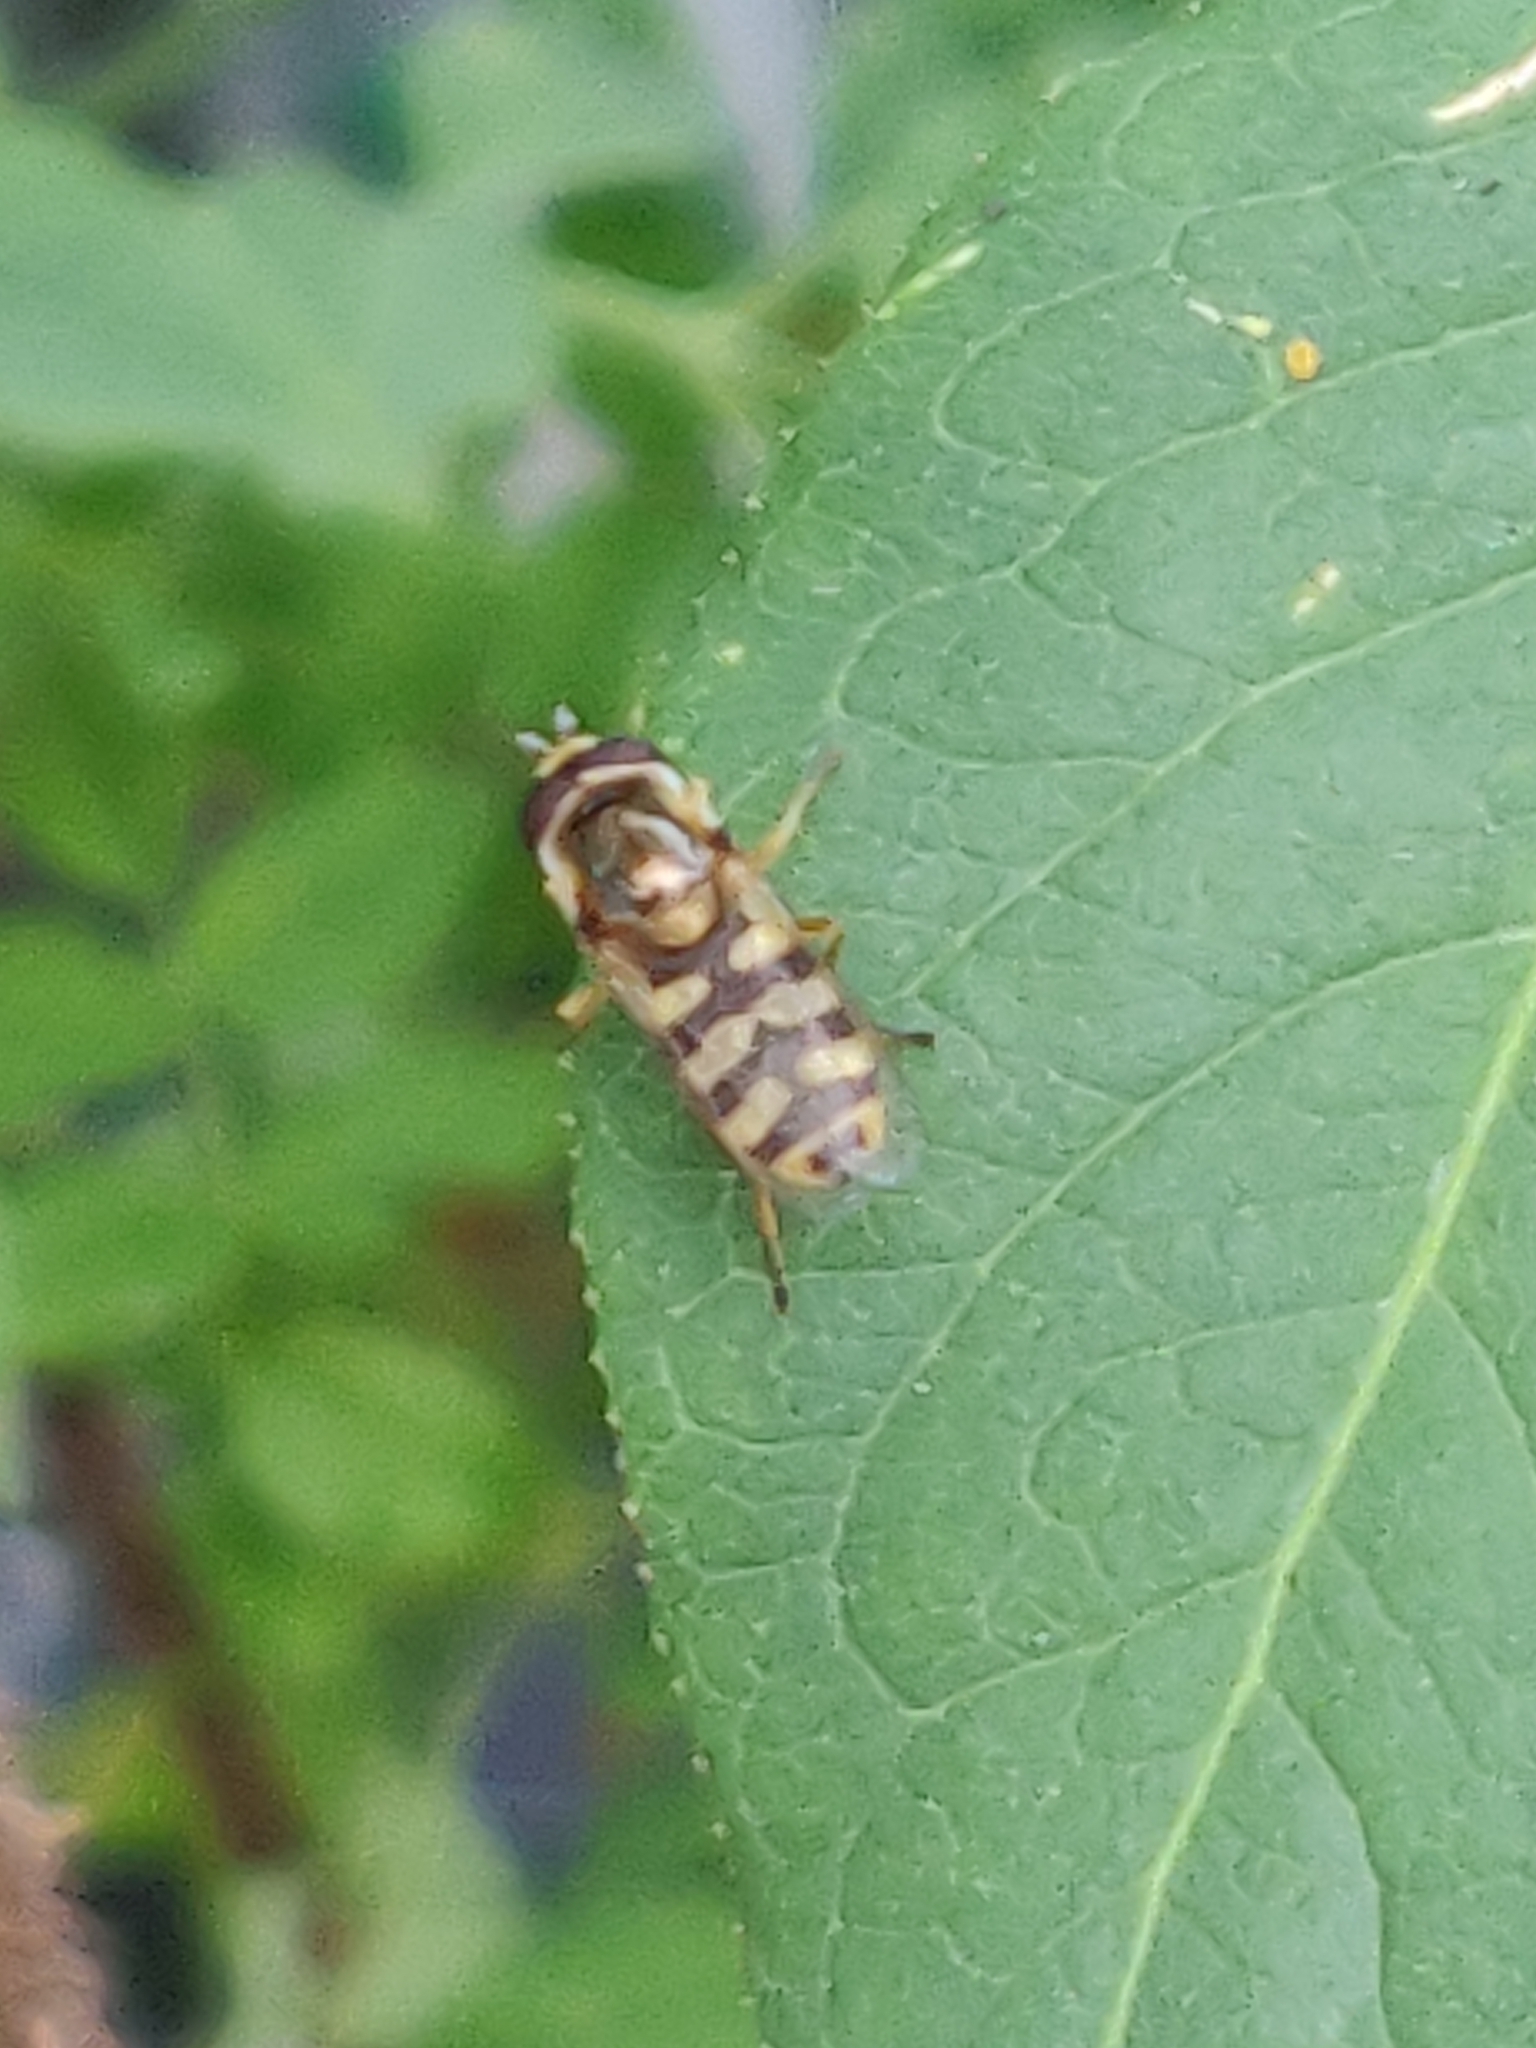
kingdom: Animalia
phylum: Arthropoda
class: Insecta
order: Diptera
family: Syrphidae
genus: Eupeodes
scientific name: Eupeodes corollae
